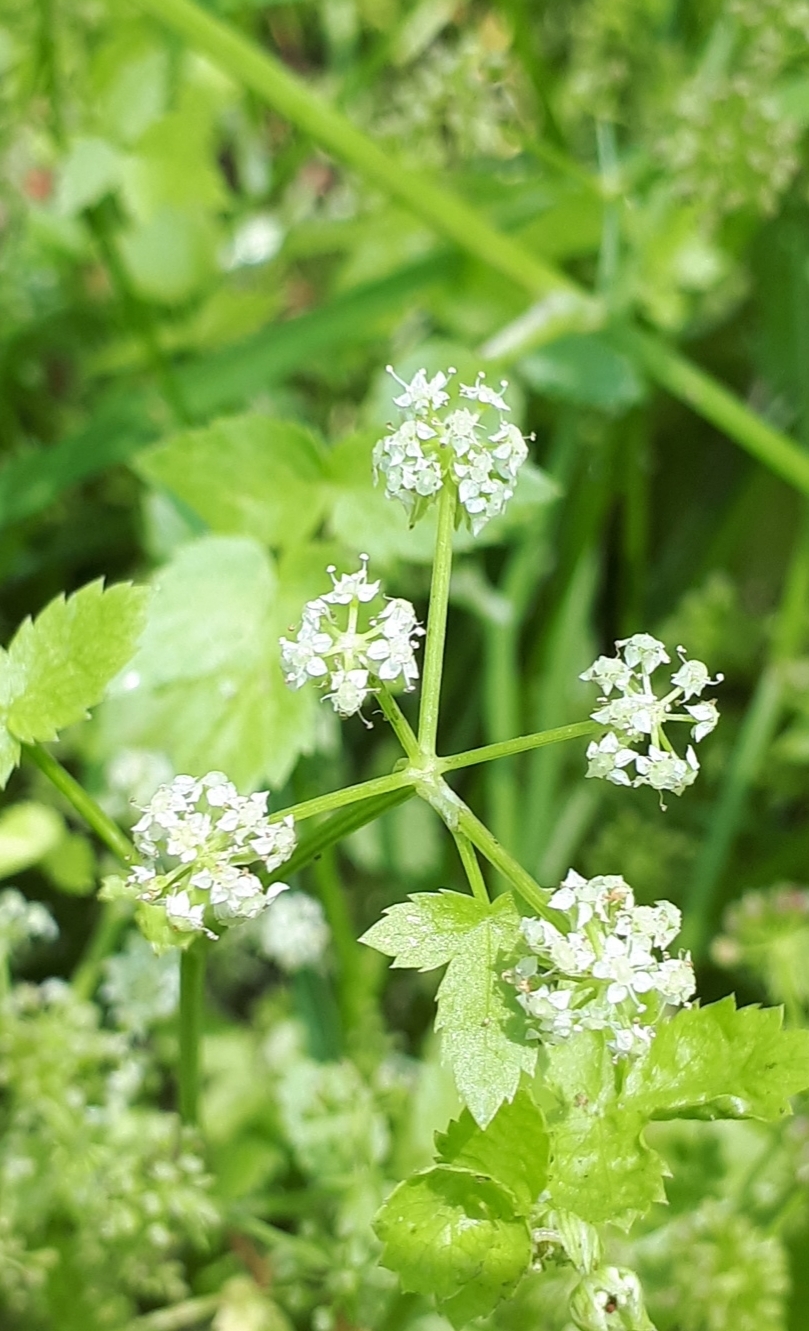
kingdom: Plantae
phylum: Tracheophyta
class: Magnoliopsida
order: Apiales
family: Apiaceae
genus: Helosciadium
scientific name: Helosciadium nodiflorum
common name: Fool's-watercress
